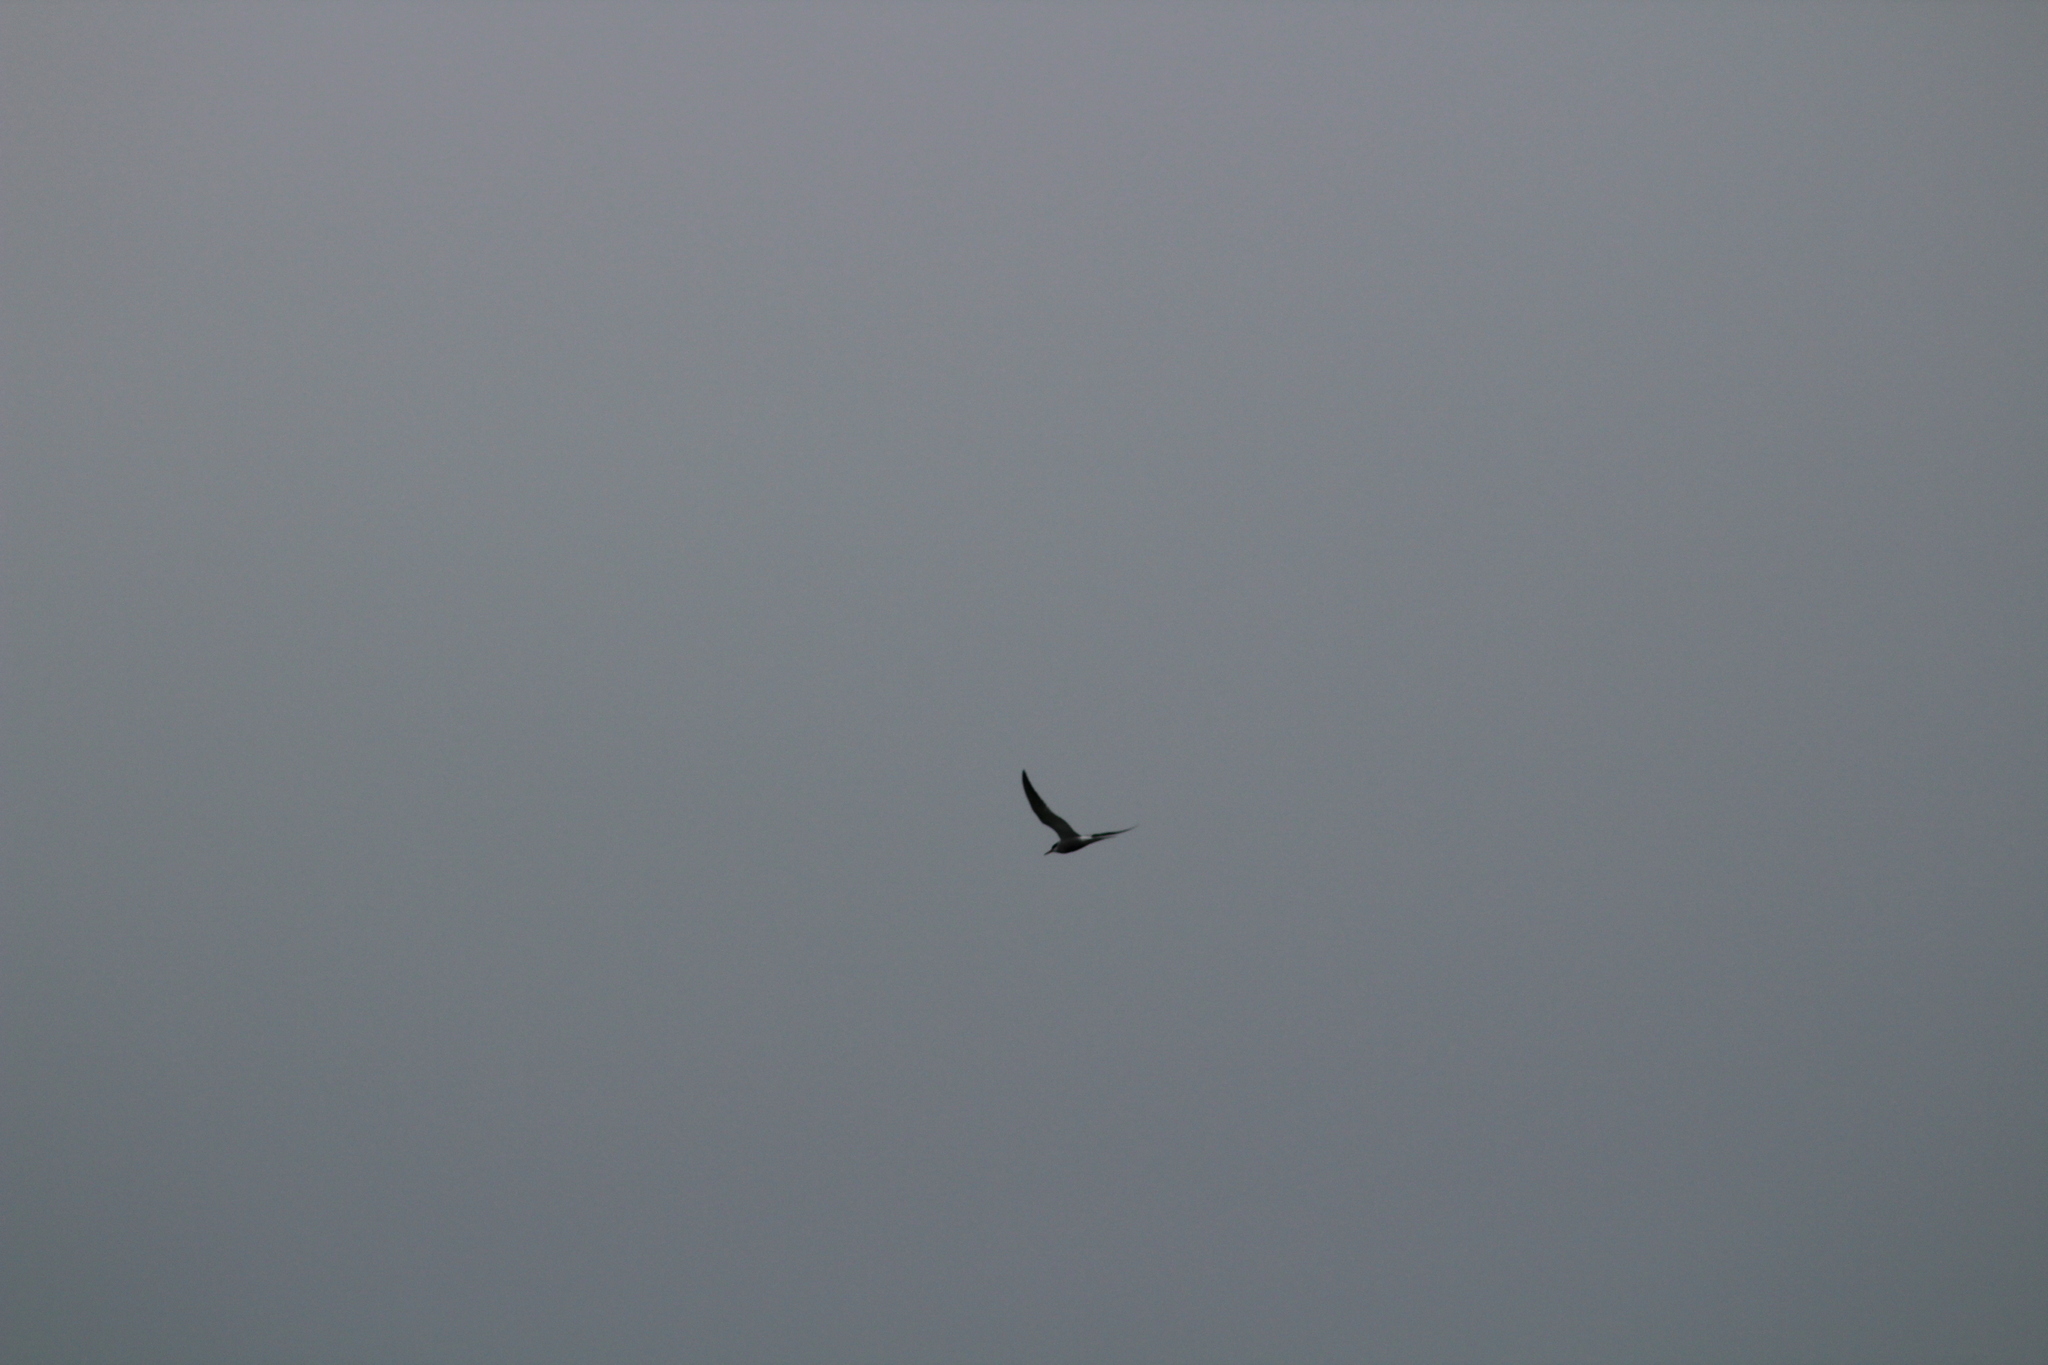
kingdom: Animalia
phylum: Chordata
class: Aves
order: Charadriiformes
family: Laridae
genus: Sterna
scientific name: Sterna hirundo
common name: Common tern
